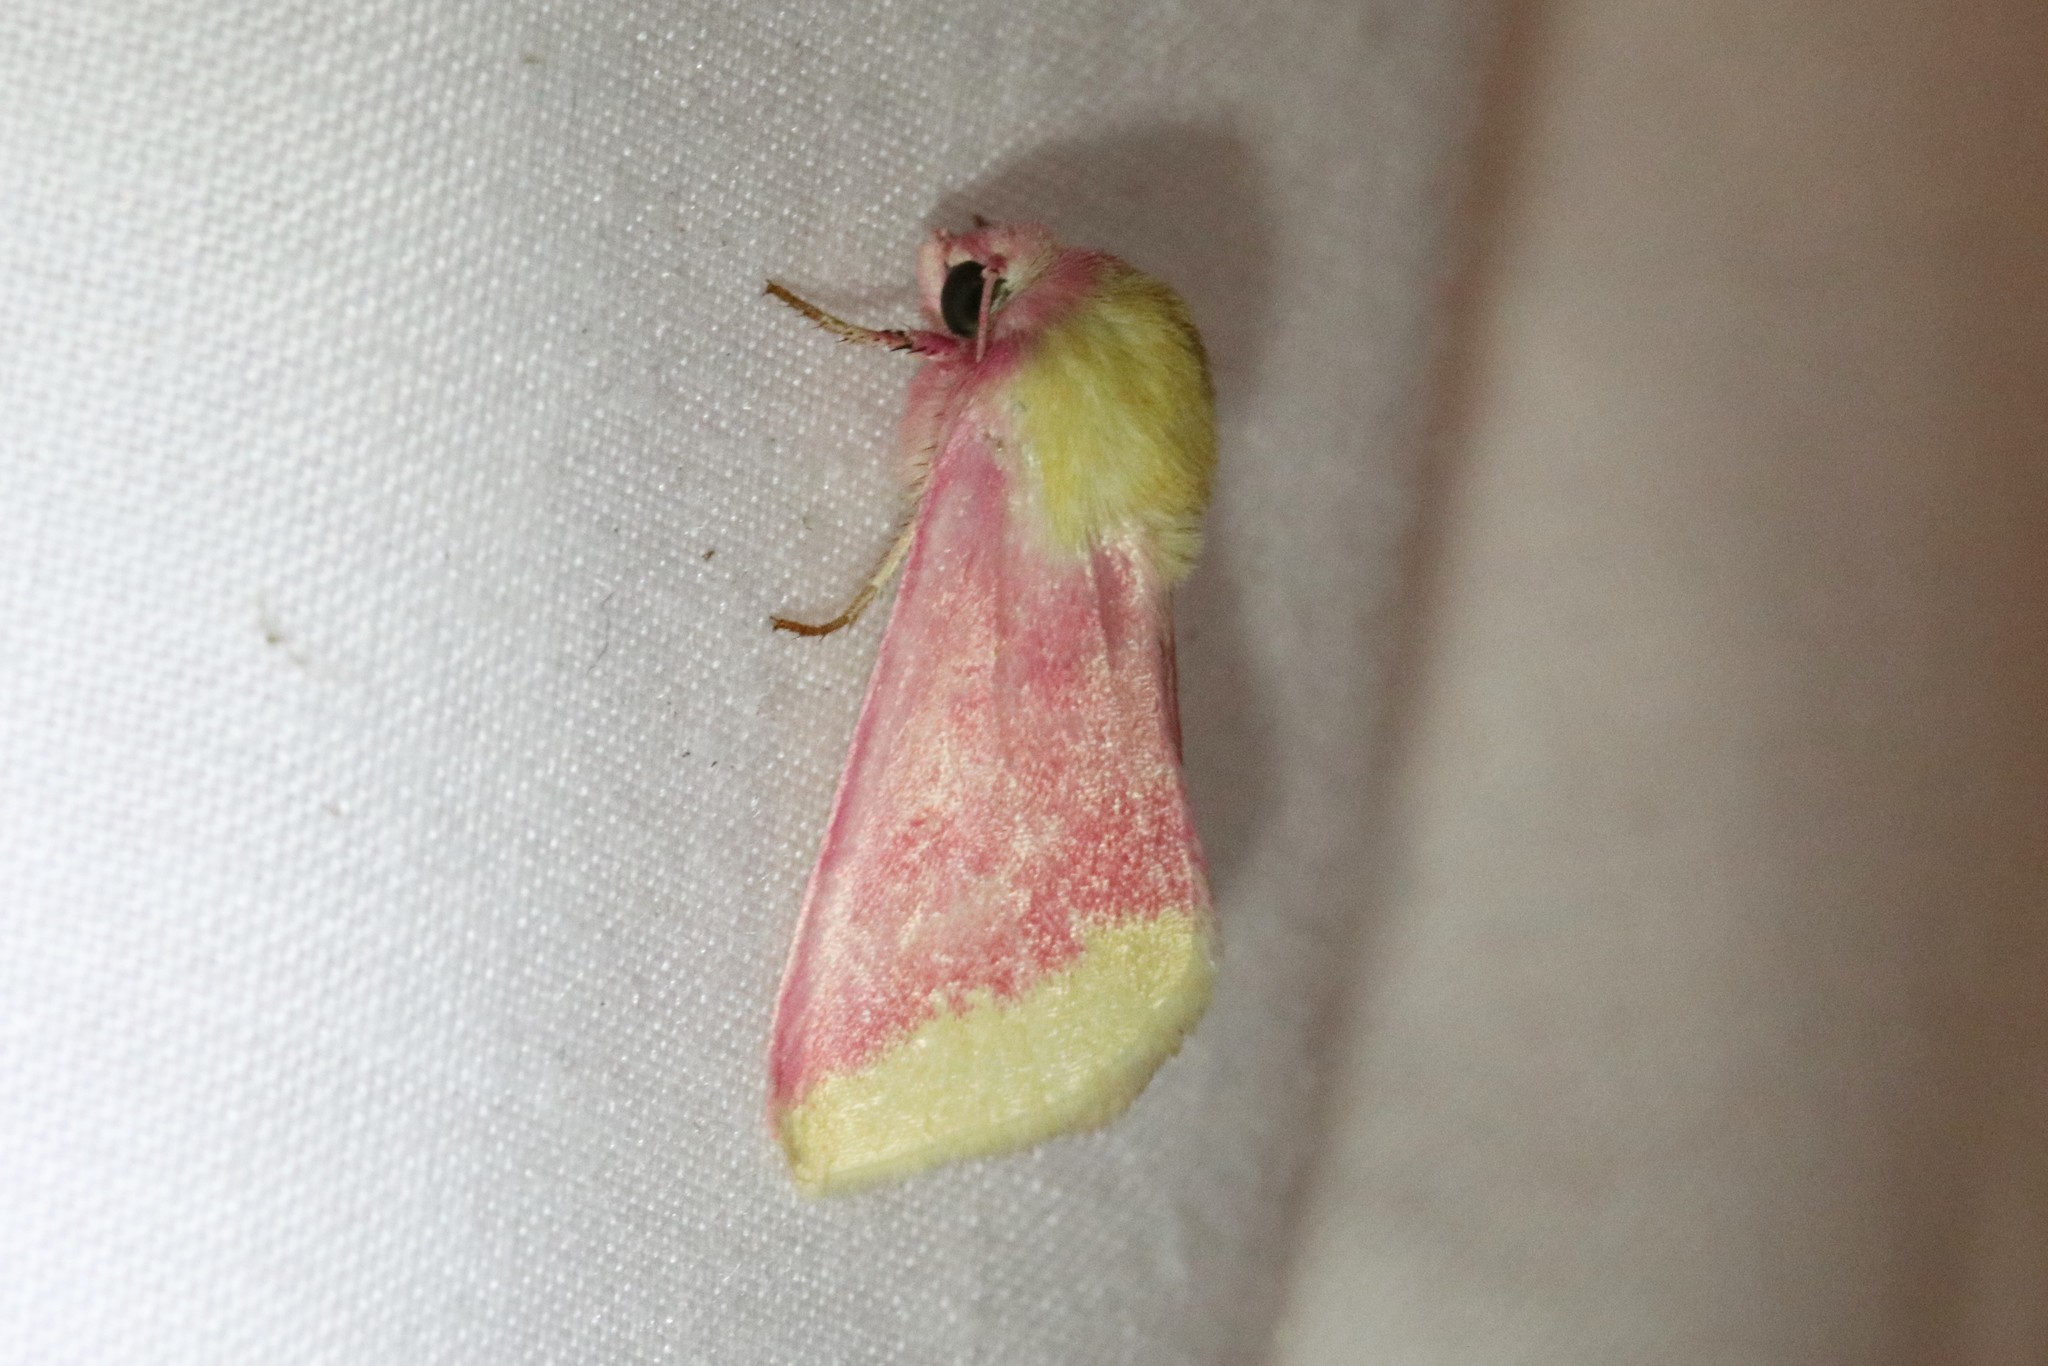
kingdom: Animalia
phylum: Arthropoda
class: Insecta
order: Lepidoptera
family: Noctuidae
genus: Schinia
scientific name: Schinia florida
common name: Primrose moth
